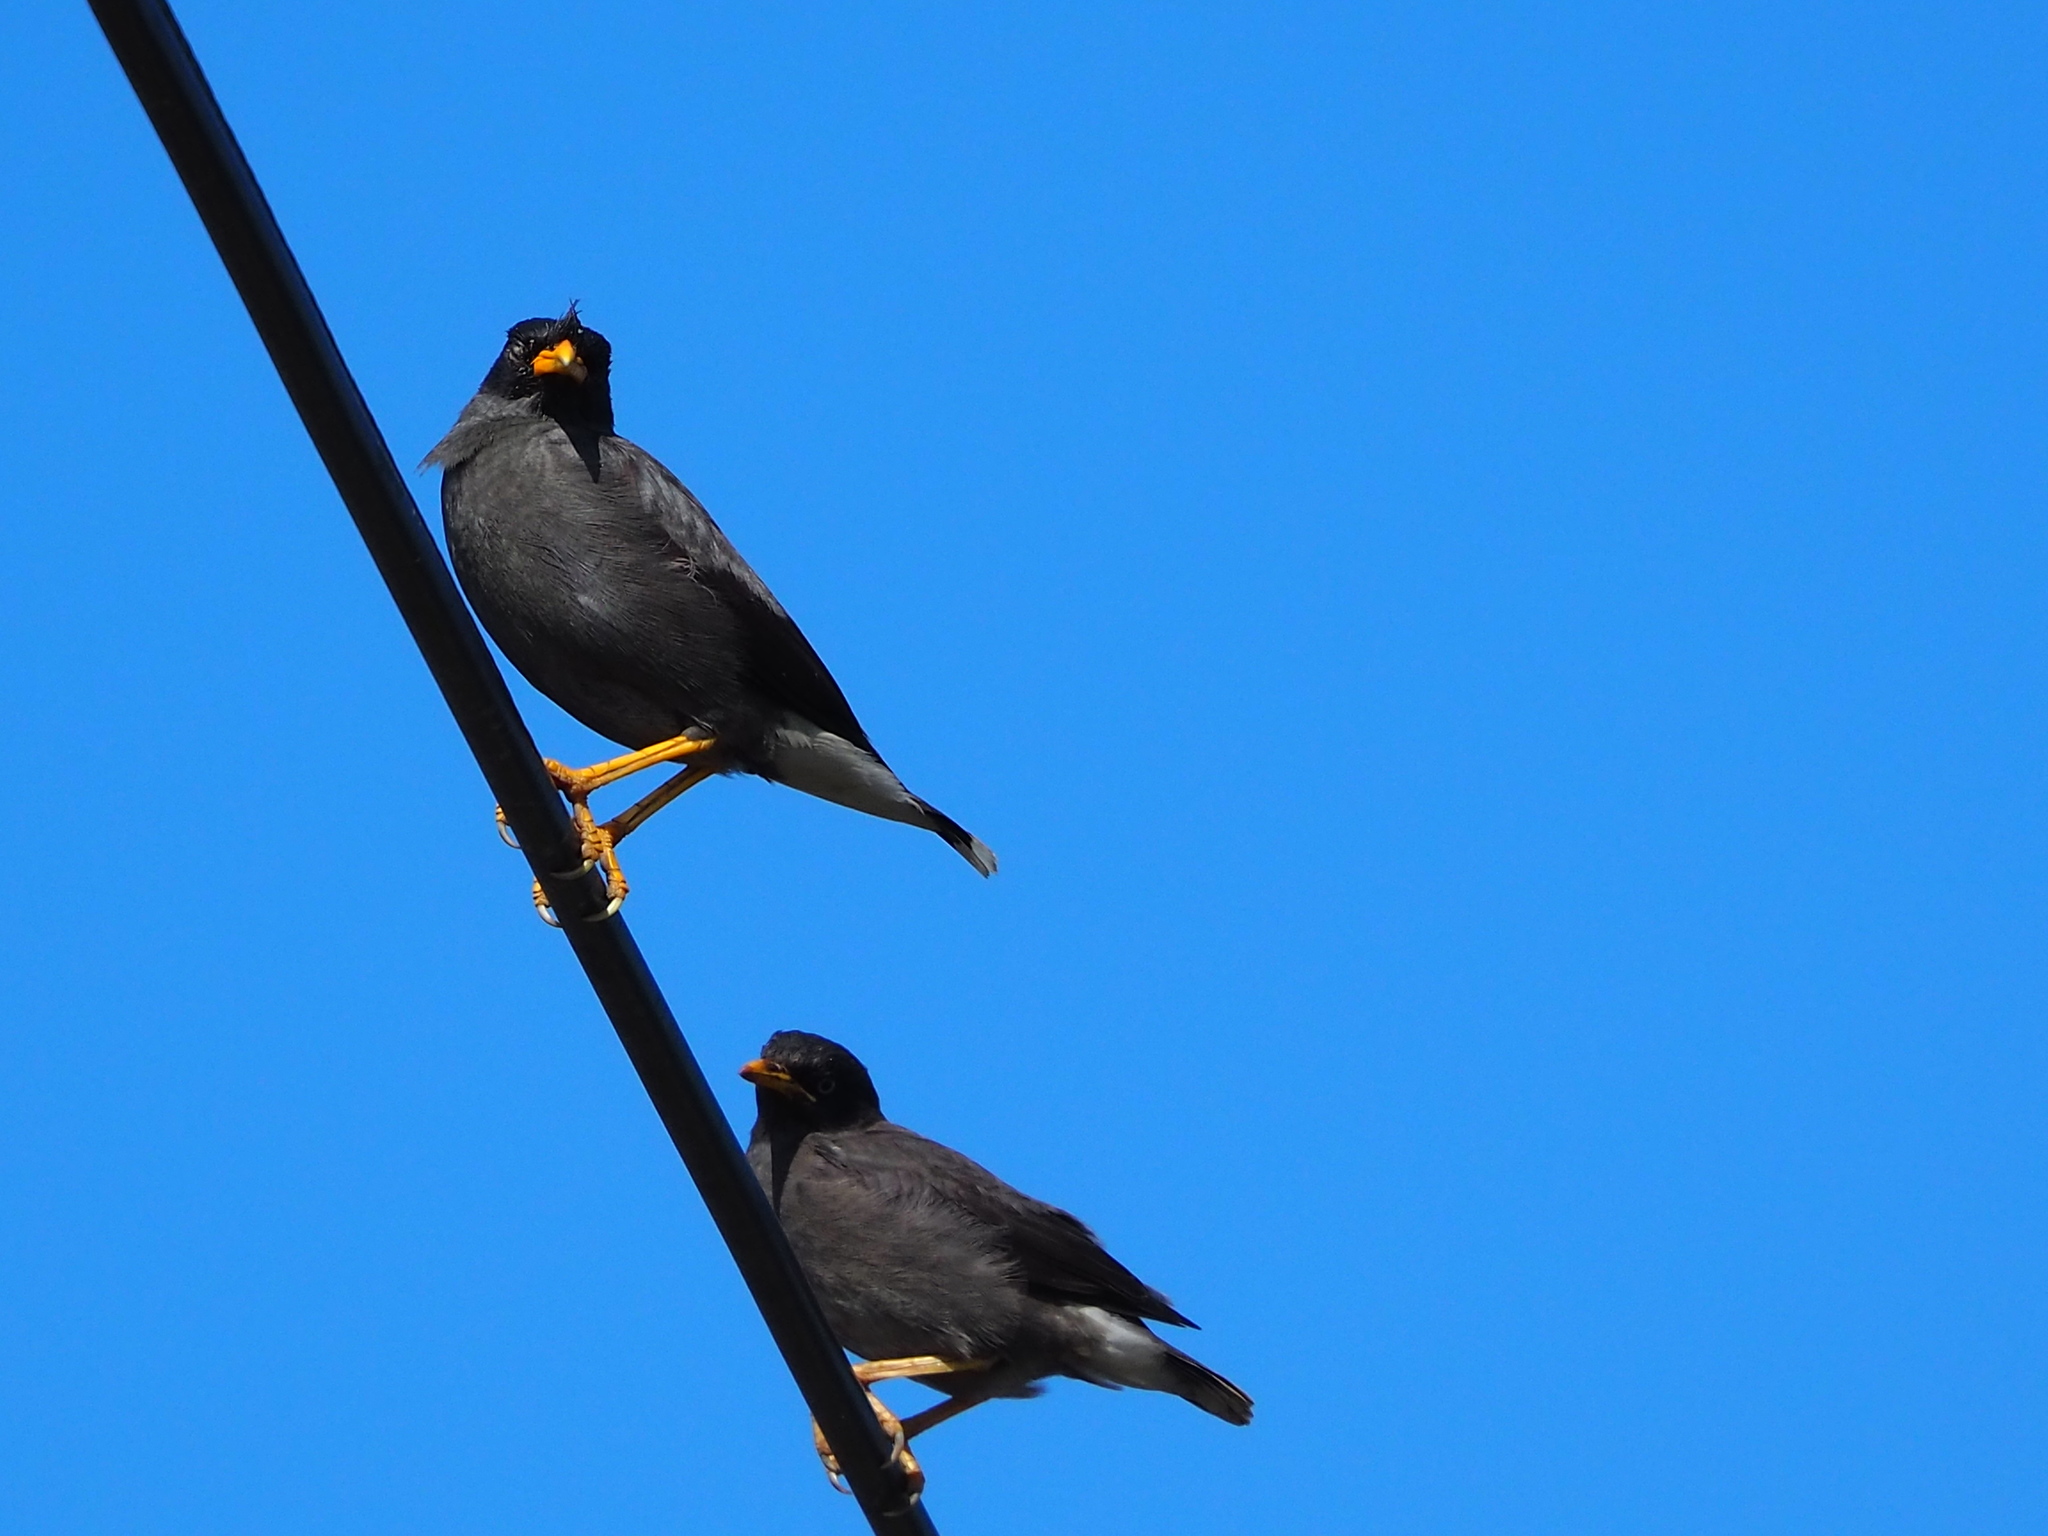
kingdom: Animalia
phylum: Chordata
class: Aves
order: Passeriformes
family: Sturnidae
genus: Acridotheres
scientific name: Acridotheres javanicus
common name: Javan myna
